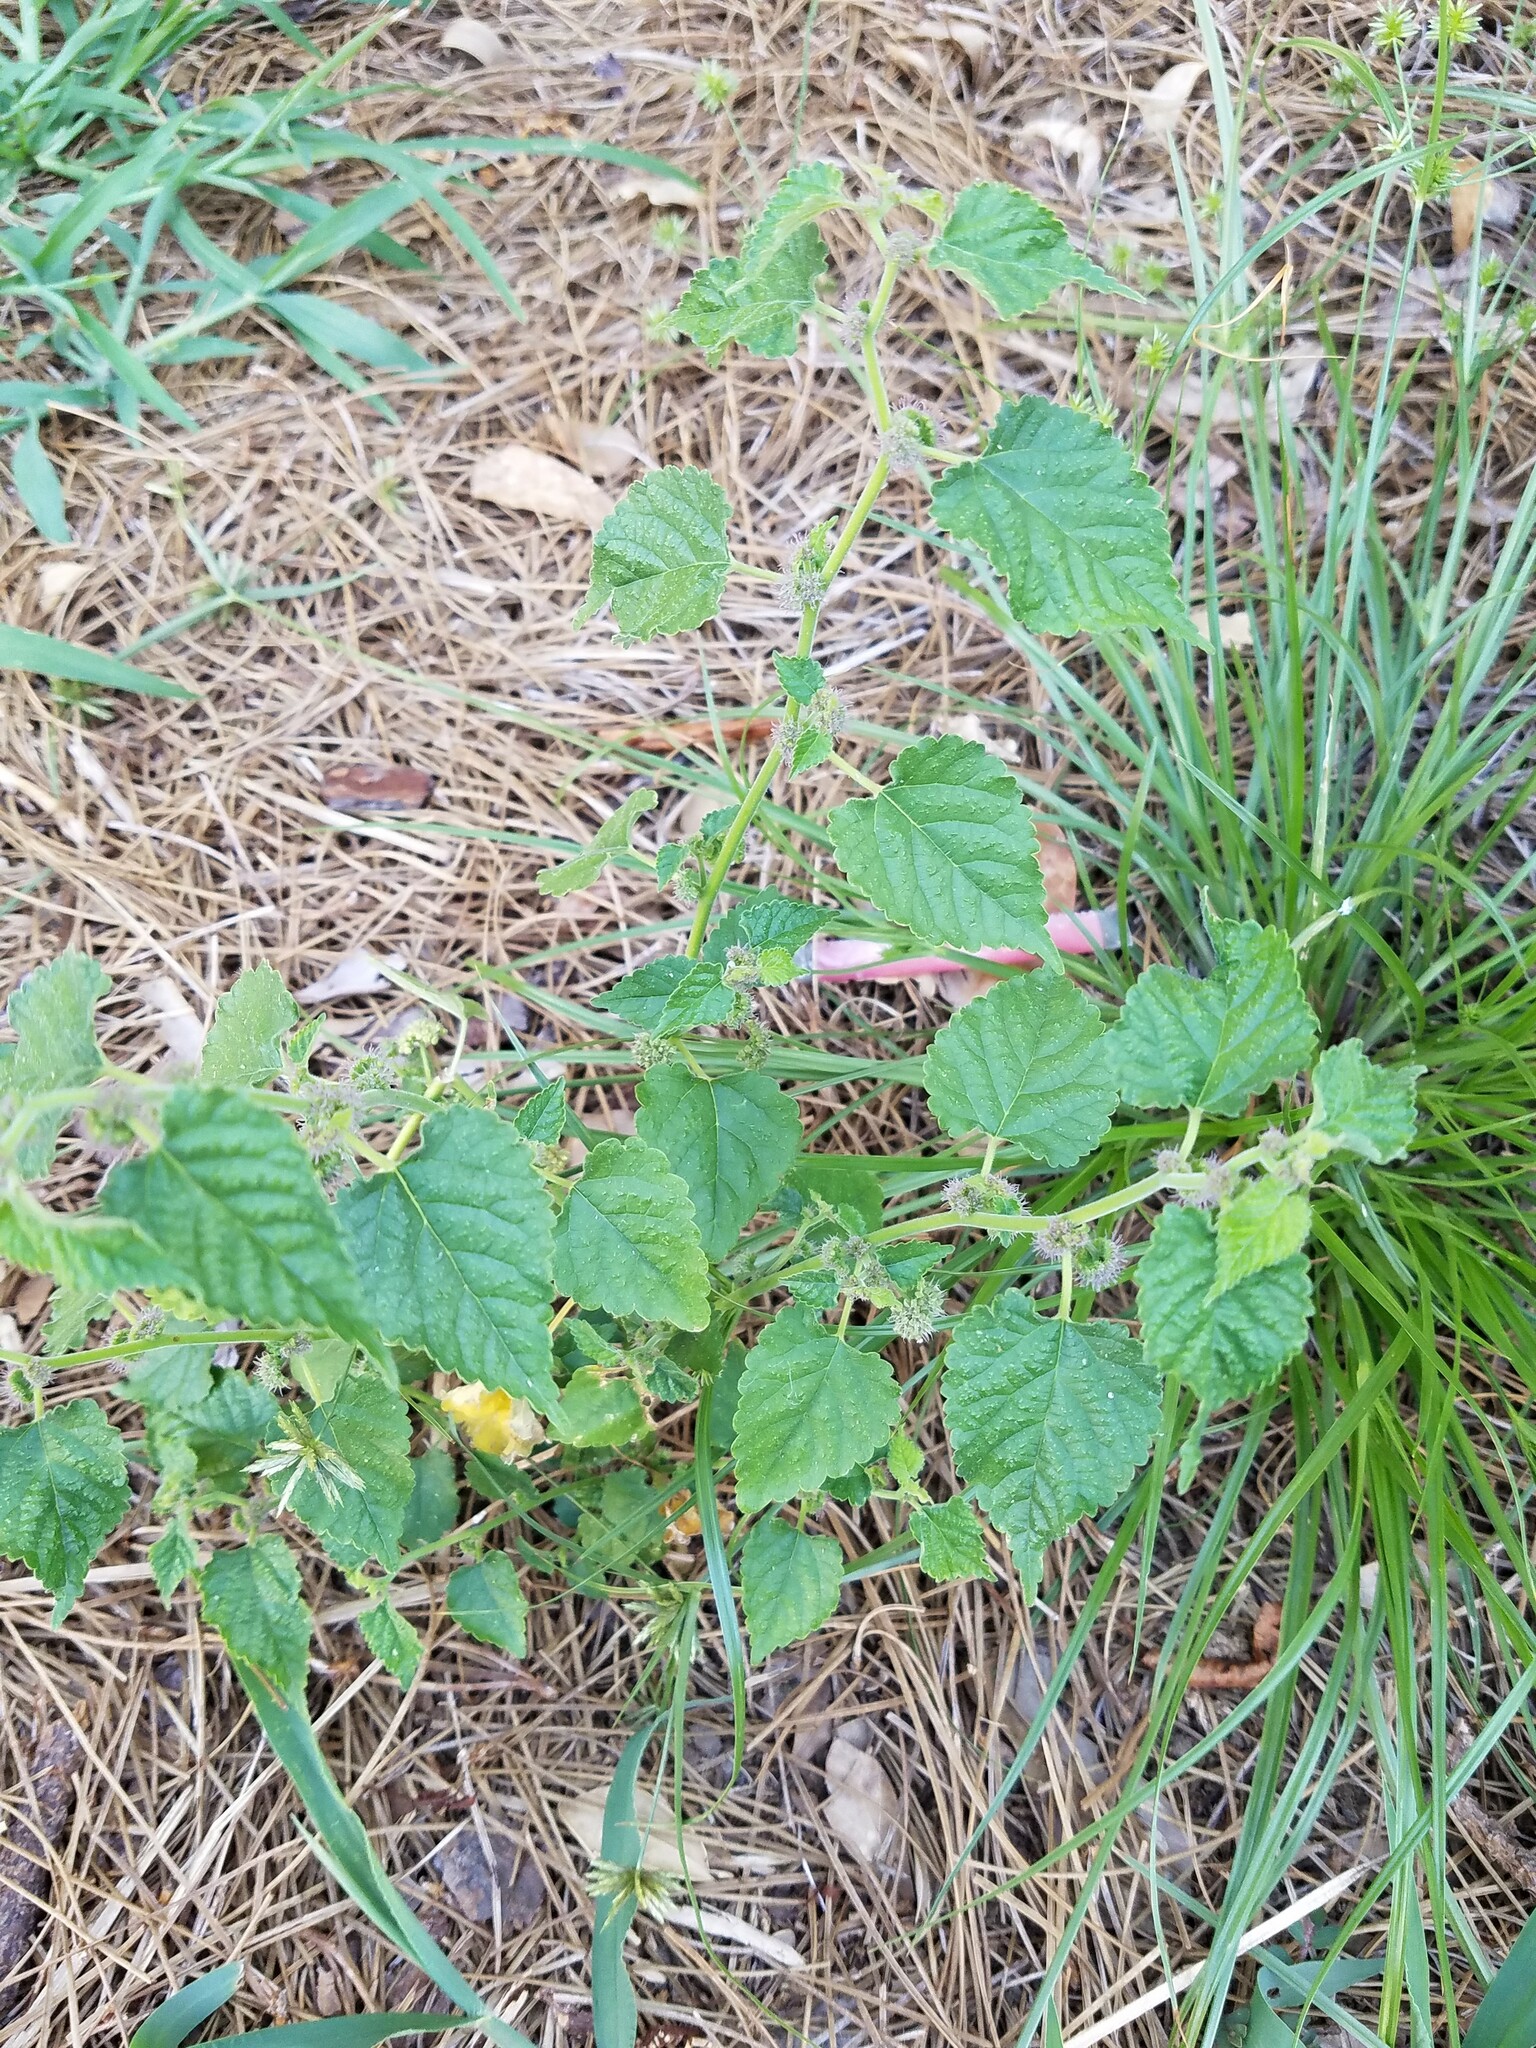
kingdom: Plantae
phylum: Tracheophyta
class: Magnoliopsida
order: Rosales
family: Moraceae
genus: Fatoua
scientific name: Fatoua villosa
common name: Hairy crabweed
